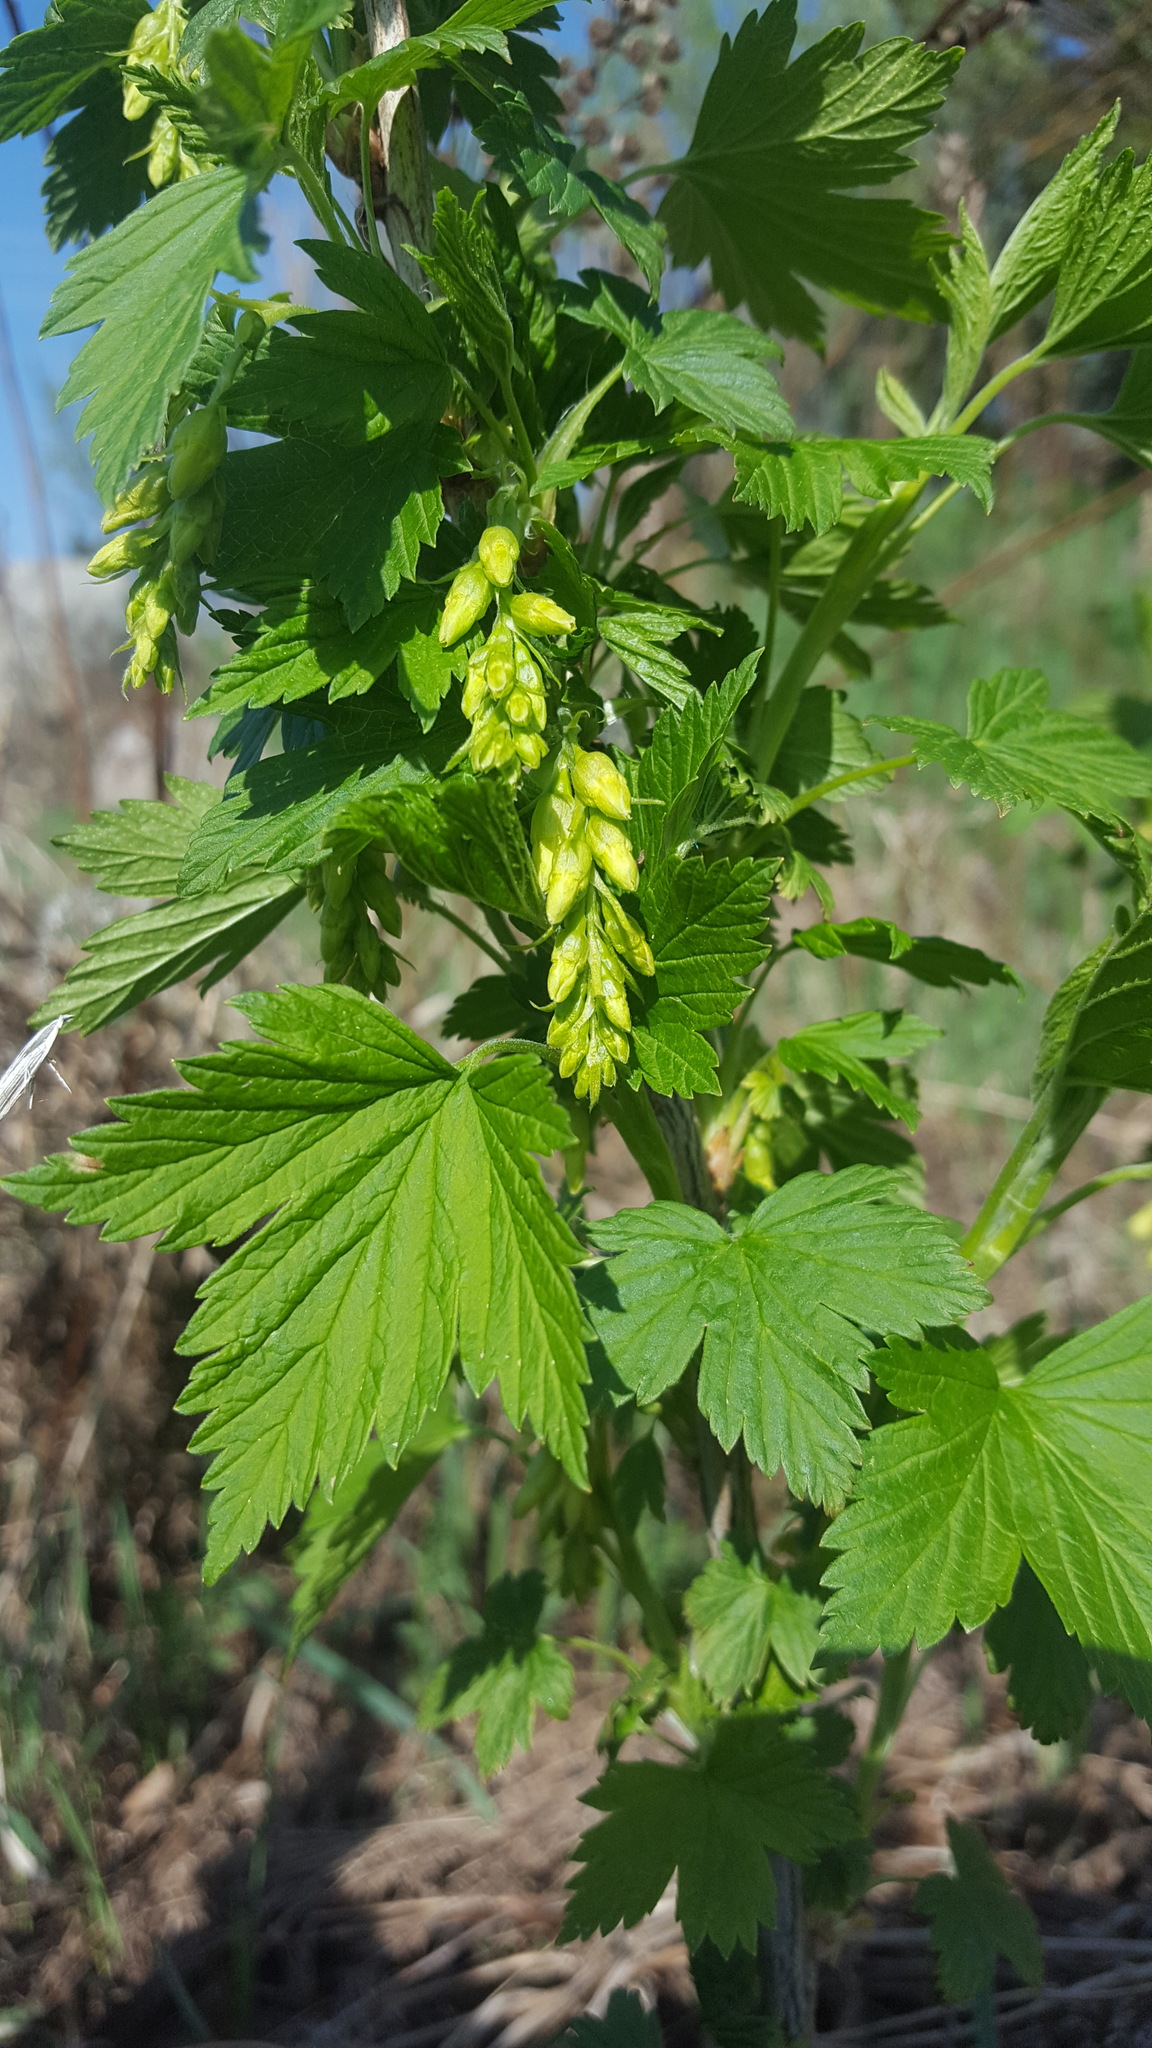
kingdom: Plantae
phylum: Tracheophyta
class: Magnoliopsida
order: Saxifragales
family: Grossulariaceae
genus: Ribes
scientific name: Ribes americanum
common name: American black currant
